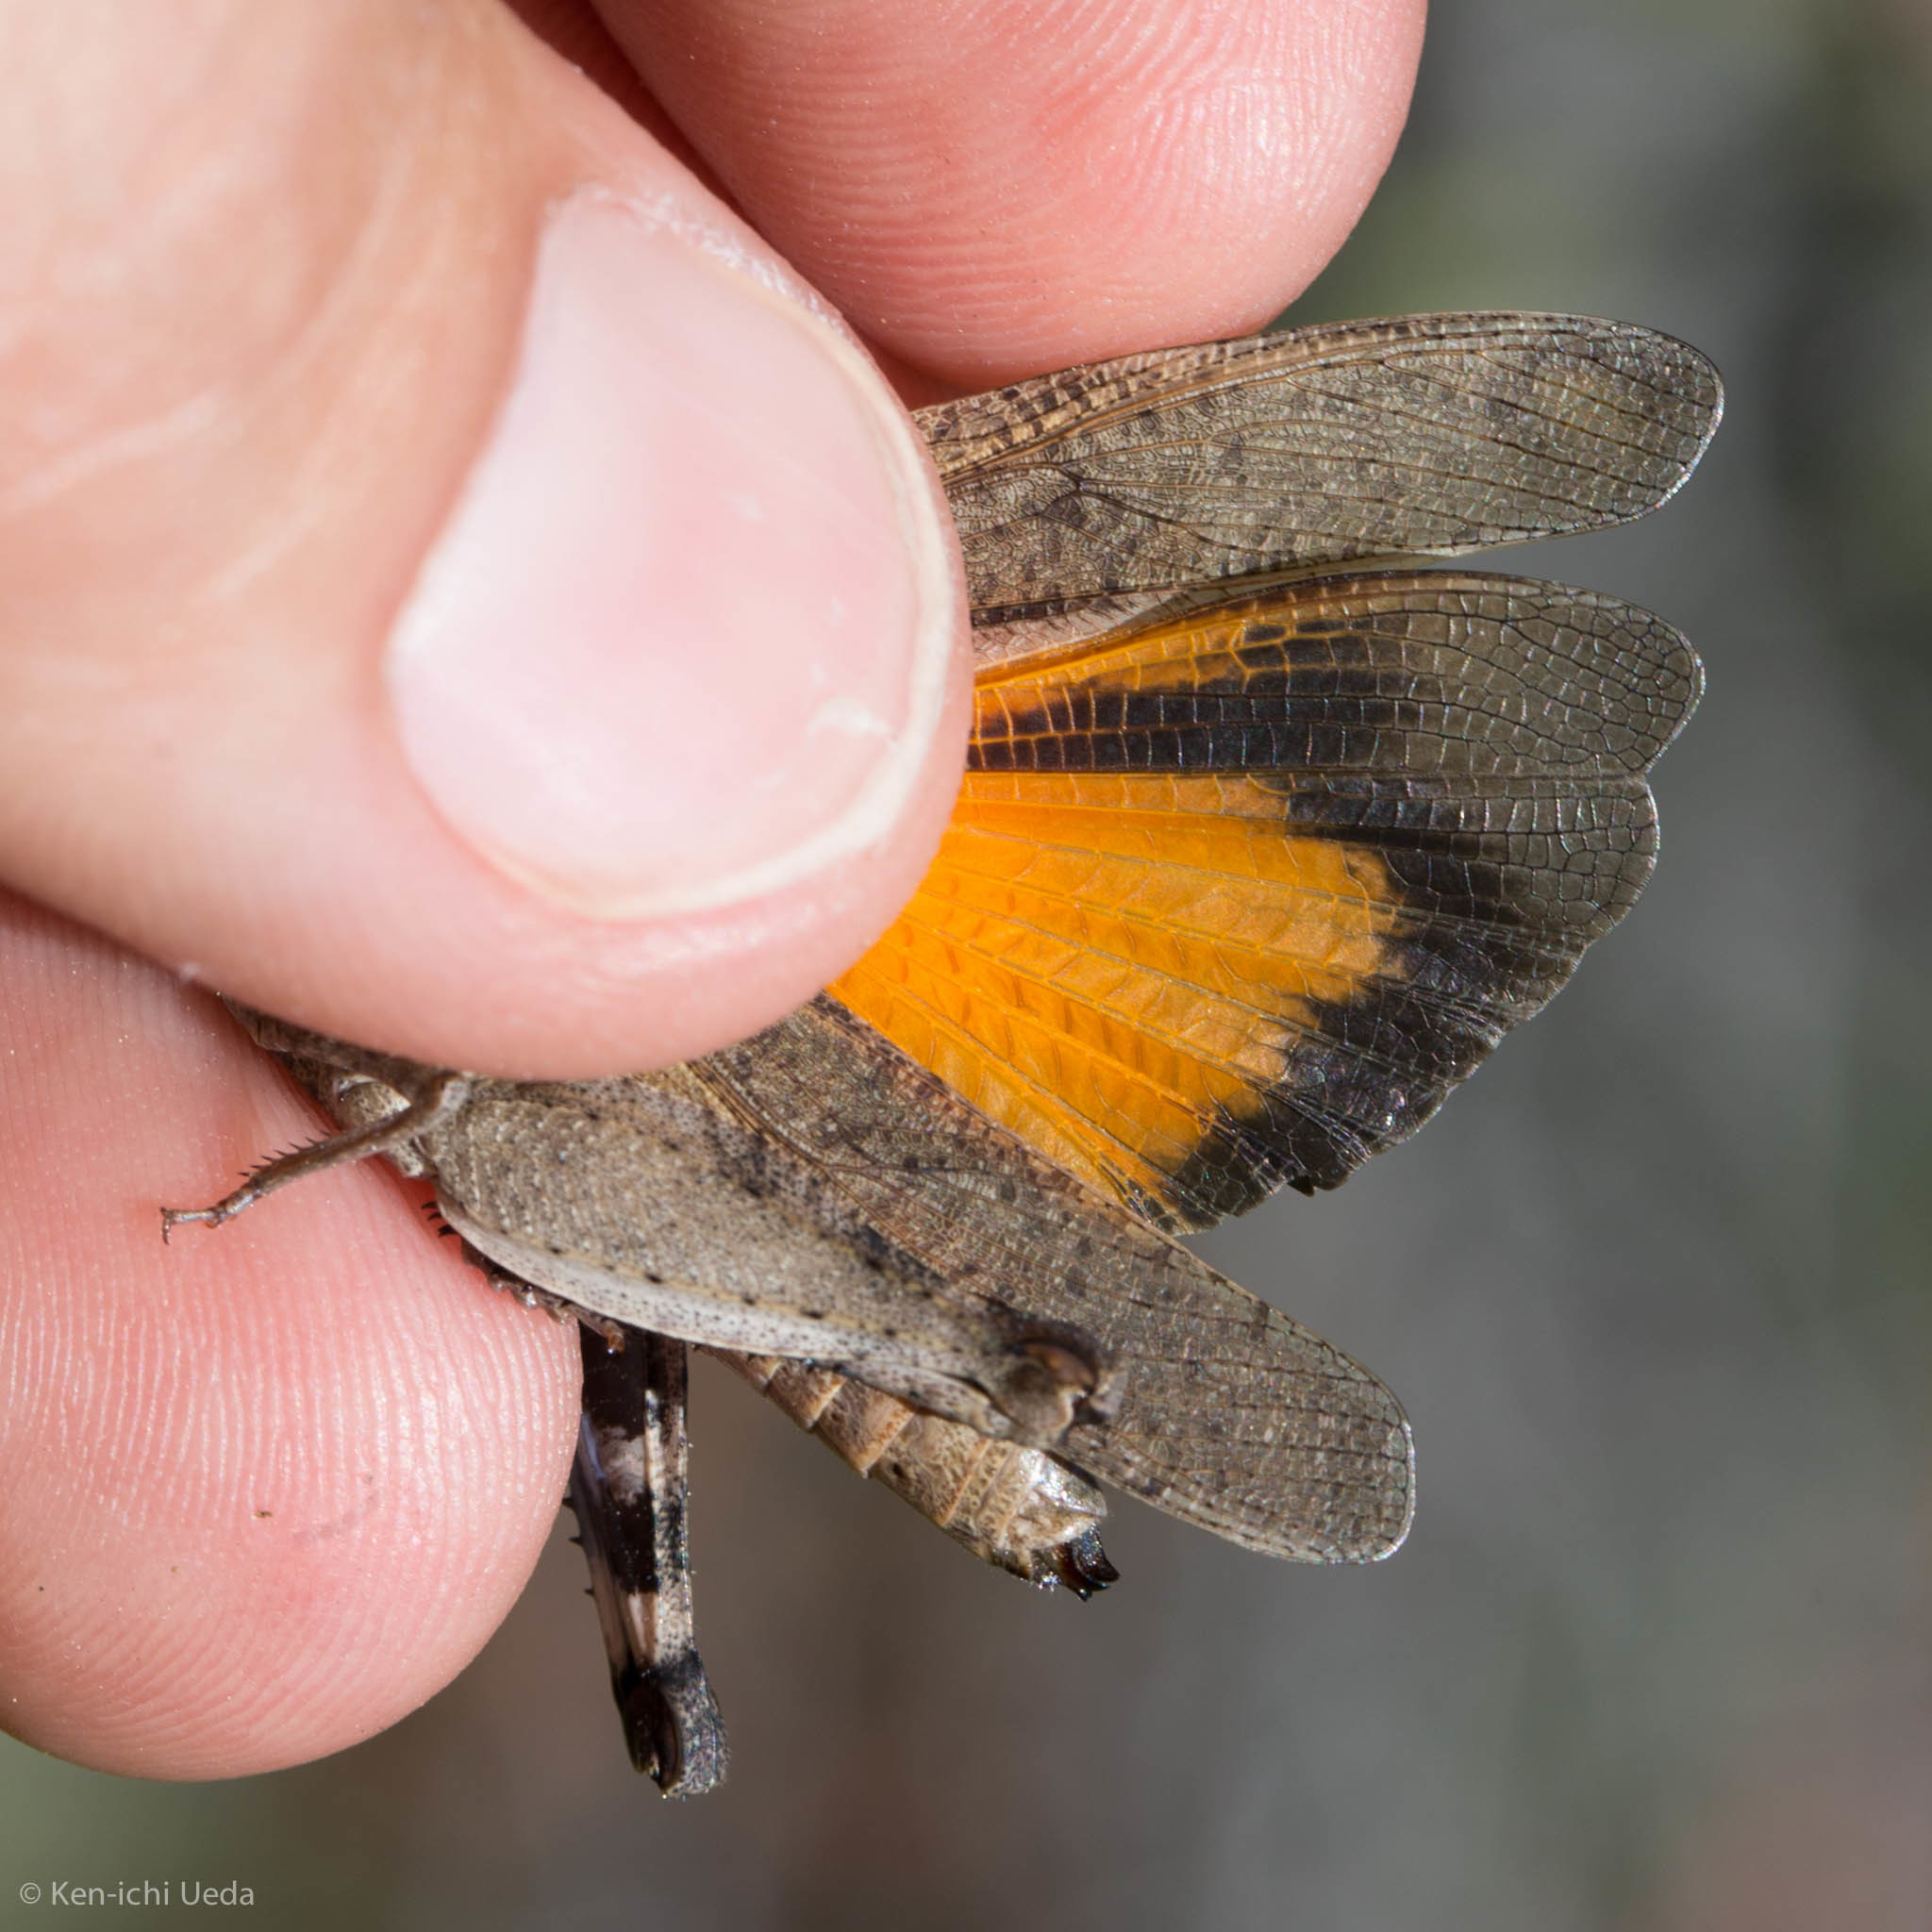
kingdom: Animalia
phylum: Arthropoda
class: Insecta
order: Orthoptera
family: Acrididae
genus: Arphia
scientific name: Arphia ramona
